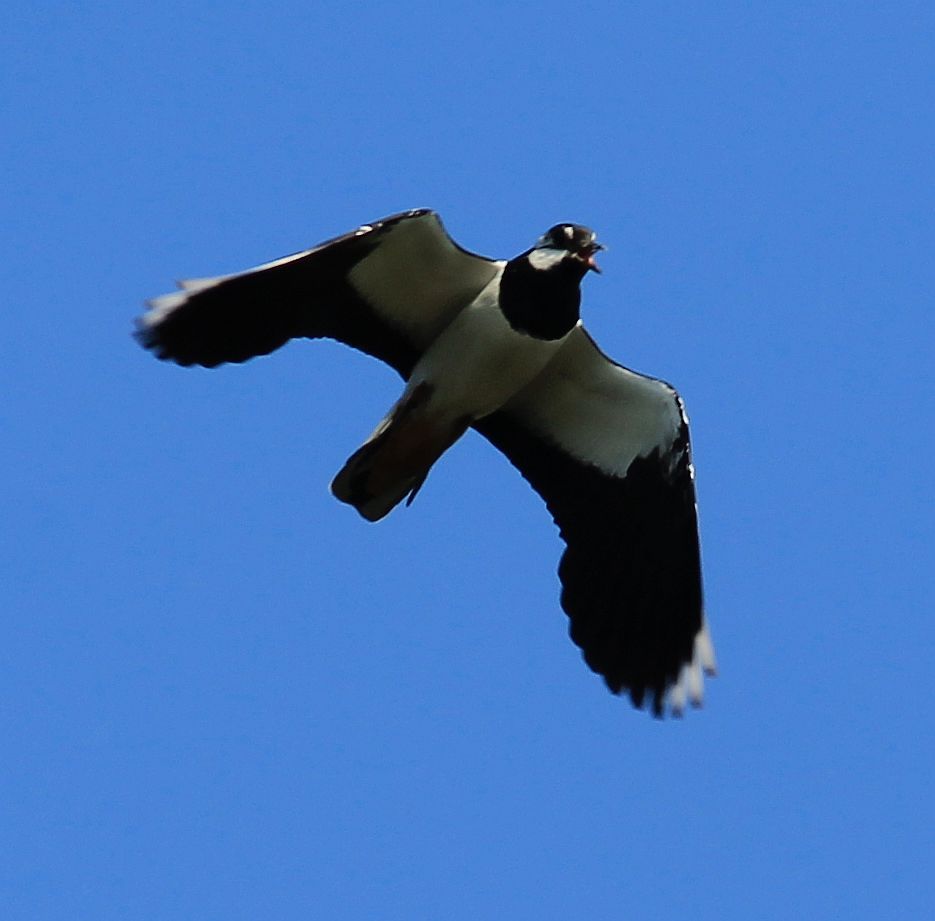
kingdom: Animalia
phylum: Chordata
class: Aves
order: Charadriiformes
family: Charadriidae
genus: Vanellus
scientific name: Vanellus vanellus
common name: Northern lapwing
